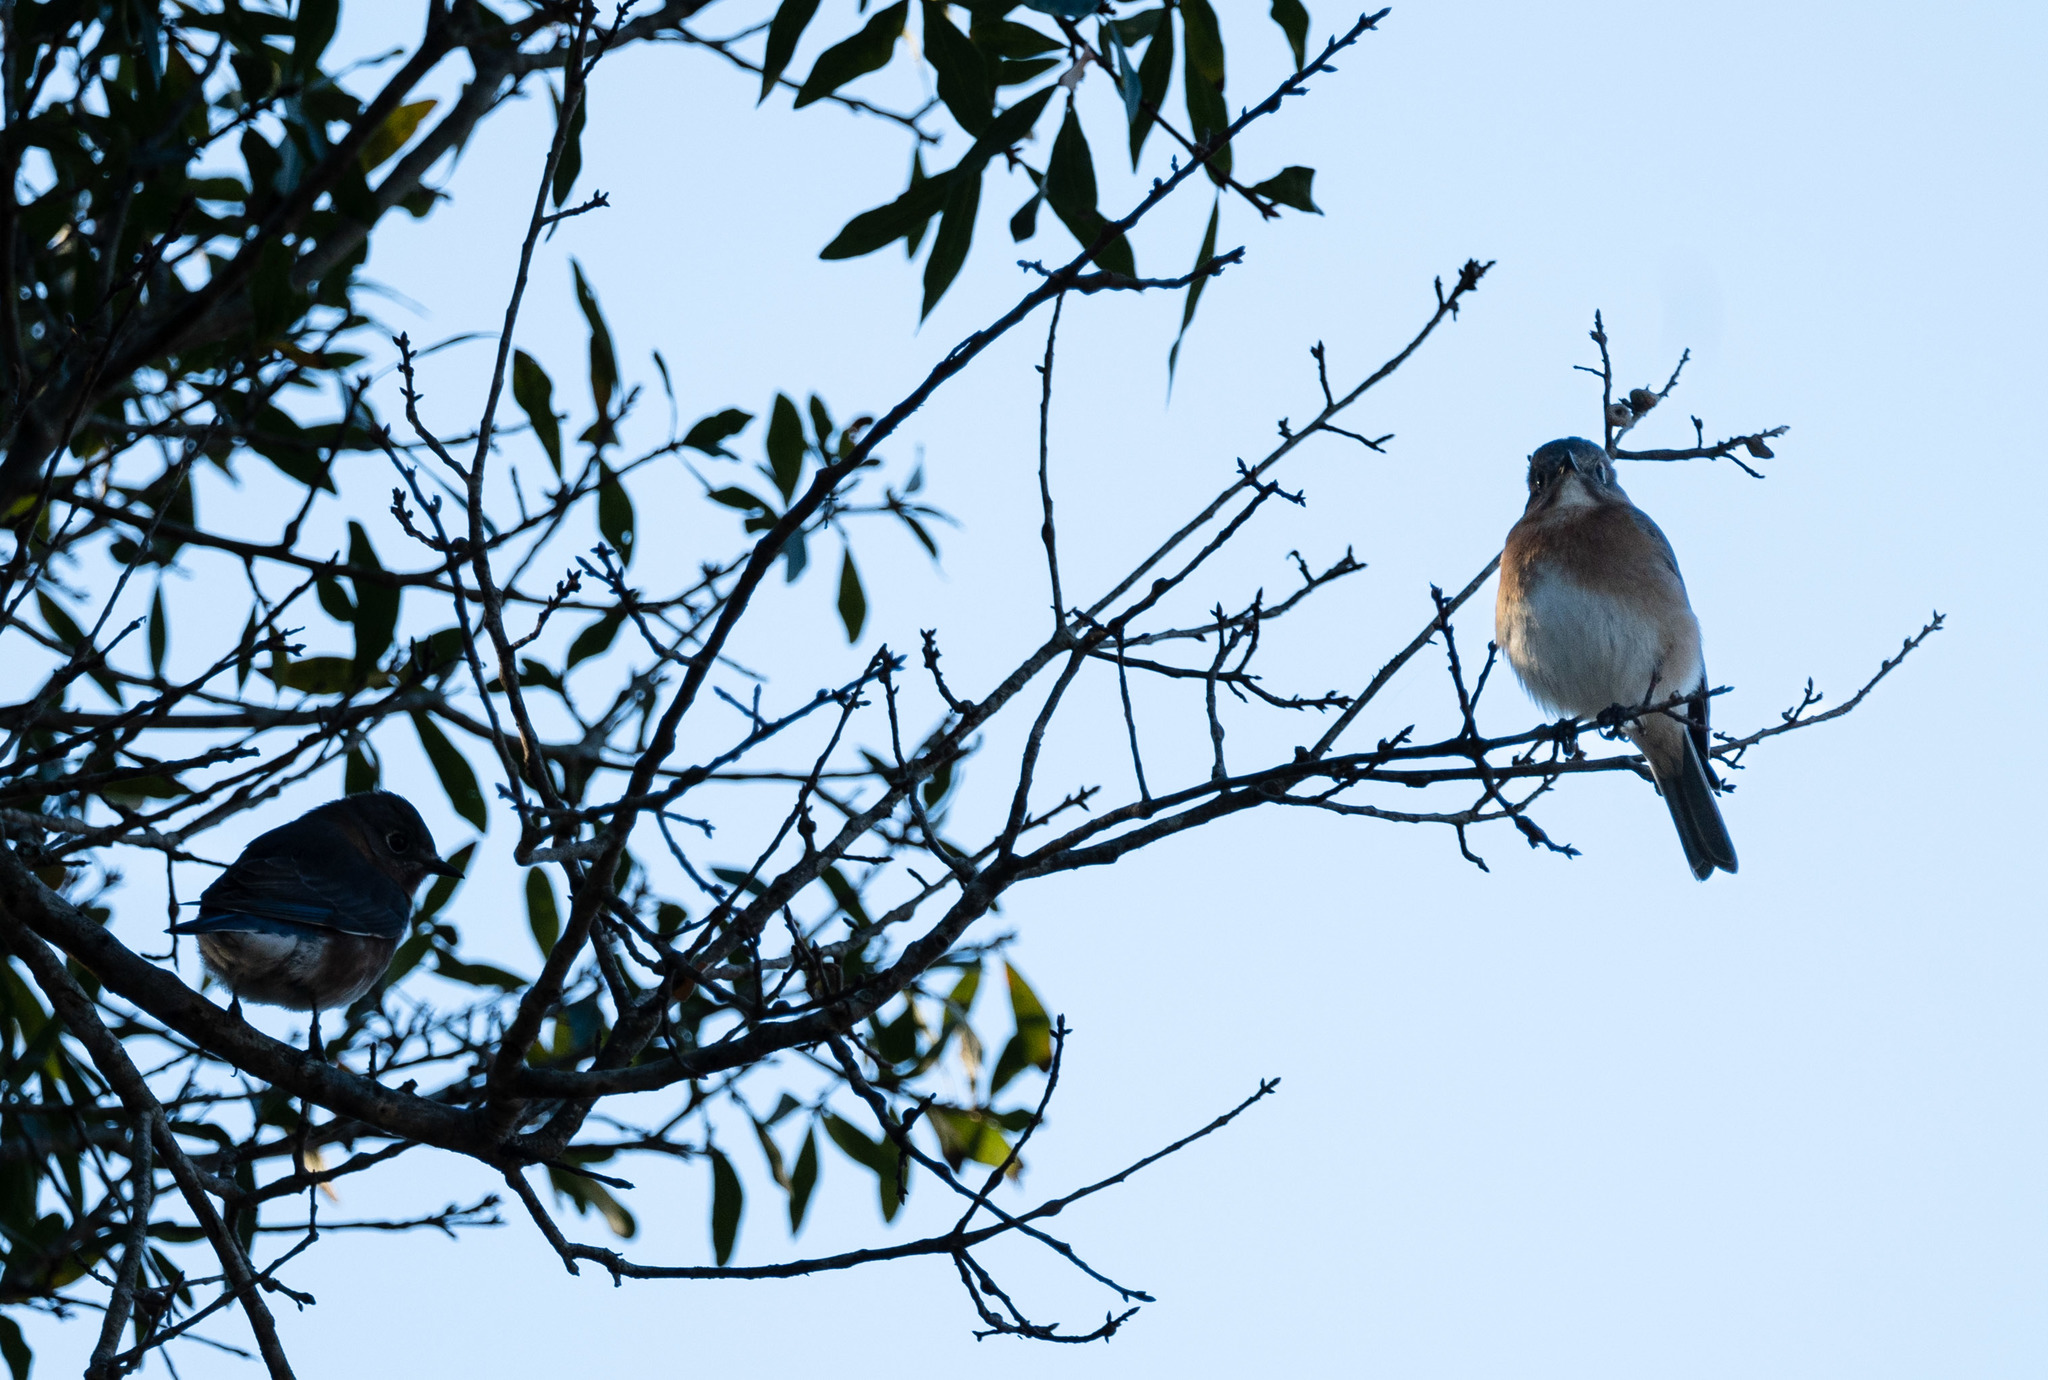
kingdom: Animalia
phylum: Chordata
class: Aves
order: Passeriformes
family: Turdidae
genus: Sialia
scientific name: Sialia sialis
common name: Eastern bluebird
